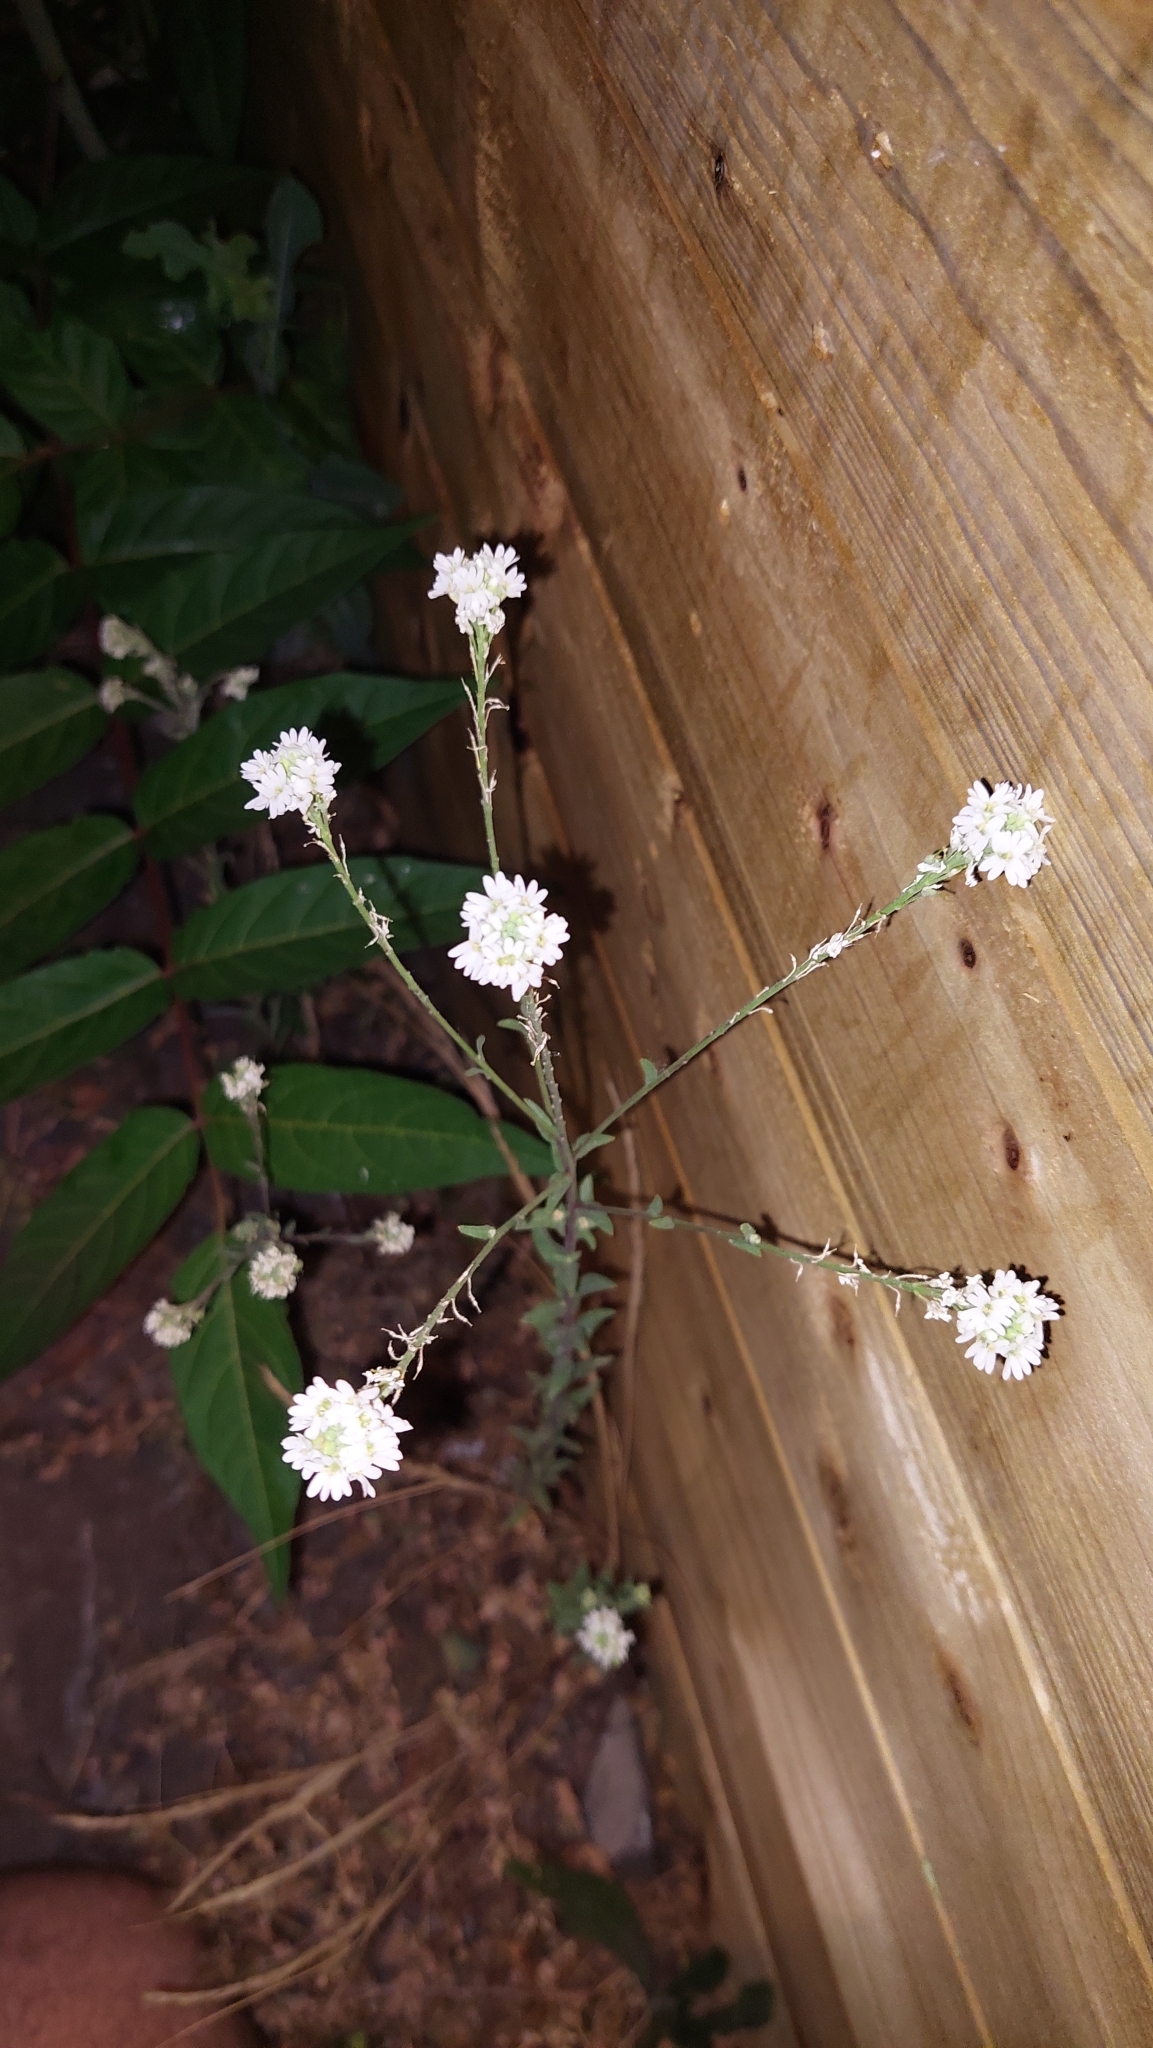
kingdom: Plantae
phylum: Tracheophyta
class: Magnoliopsida
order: Brassicales
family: Brassicaceae
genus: Berteroa
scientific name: Berteroa incana
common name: Hoary alison
